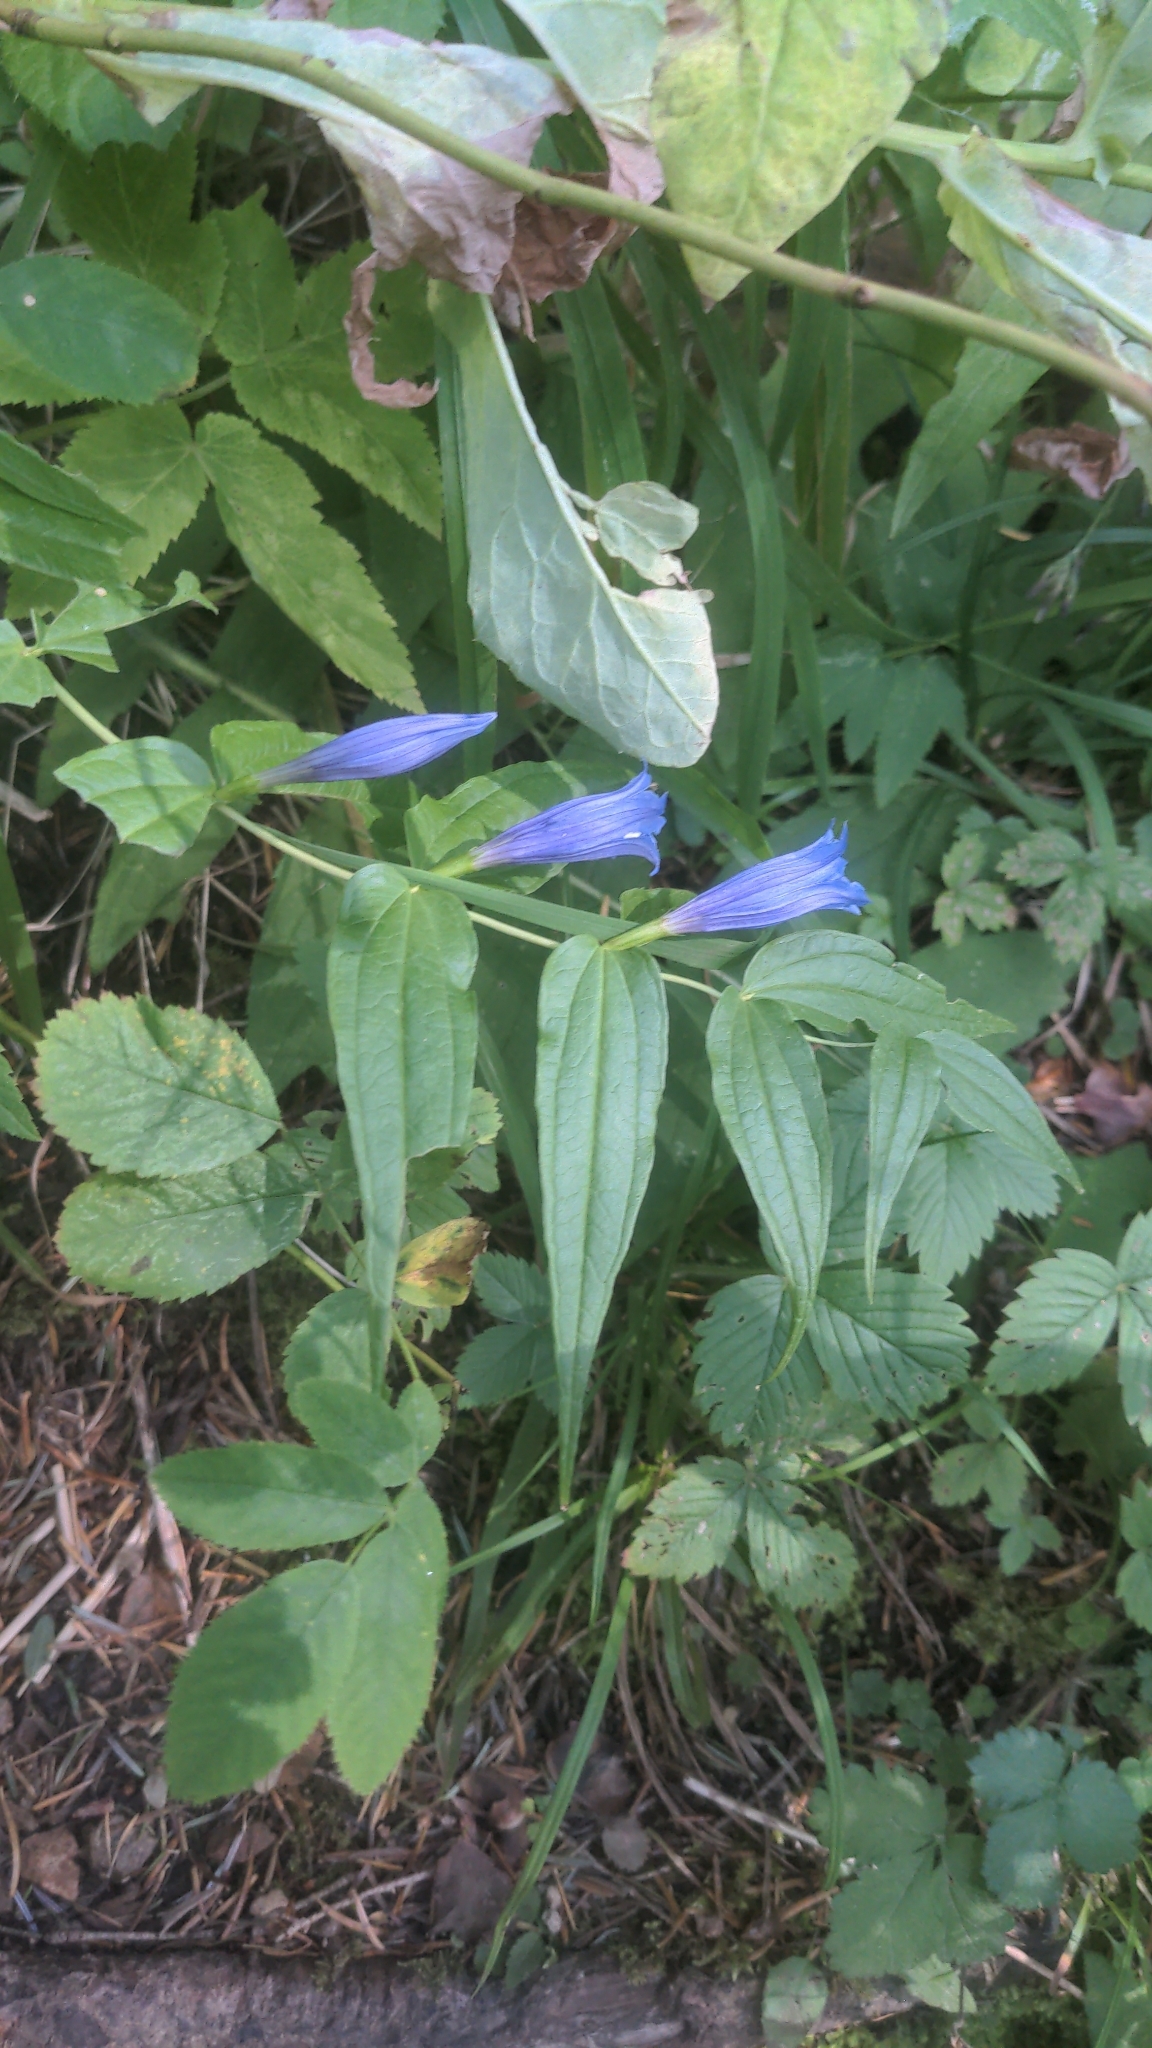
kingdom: Plantae
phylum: Tracheophyta
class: Magnoliopsida
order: Gentianales
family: Gentianaceae
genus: Gentiana
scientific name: Gentiana asclepiadea
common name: Willow gentian
